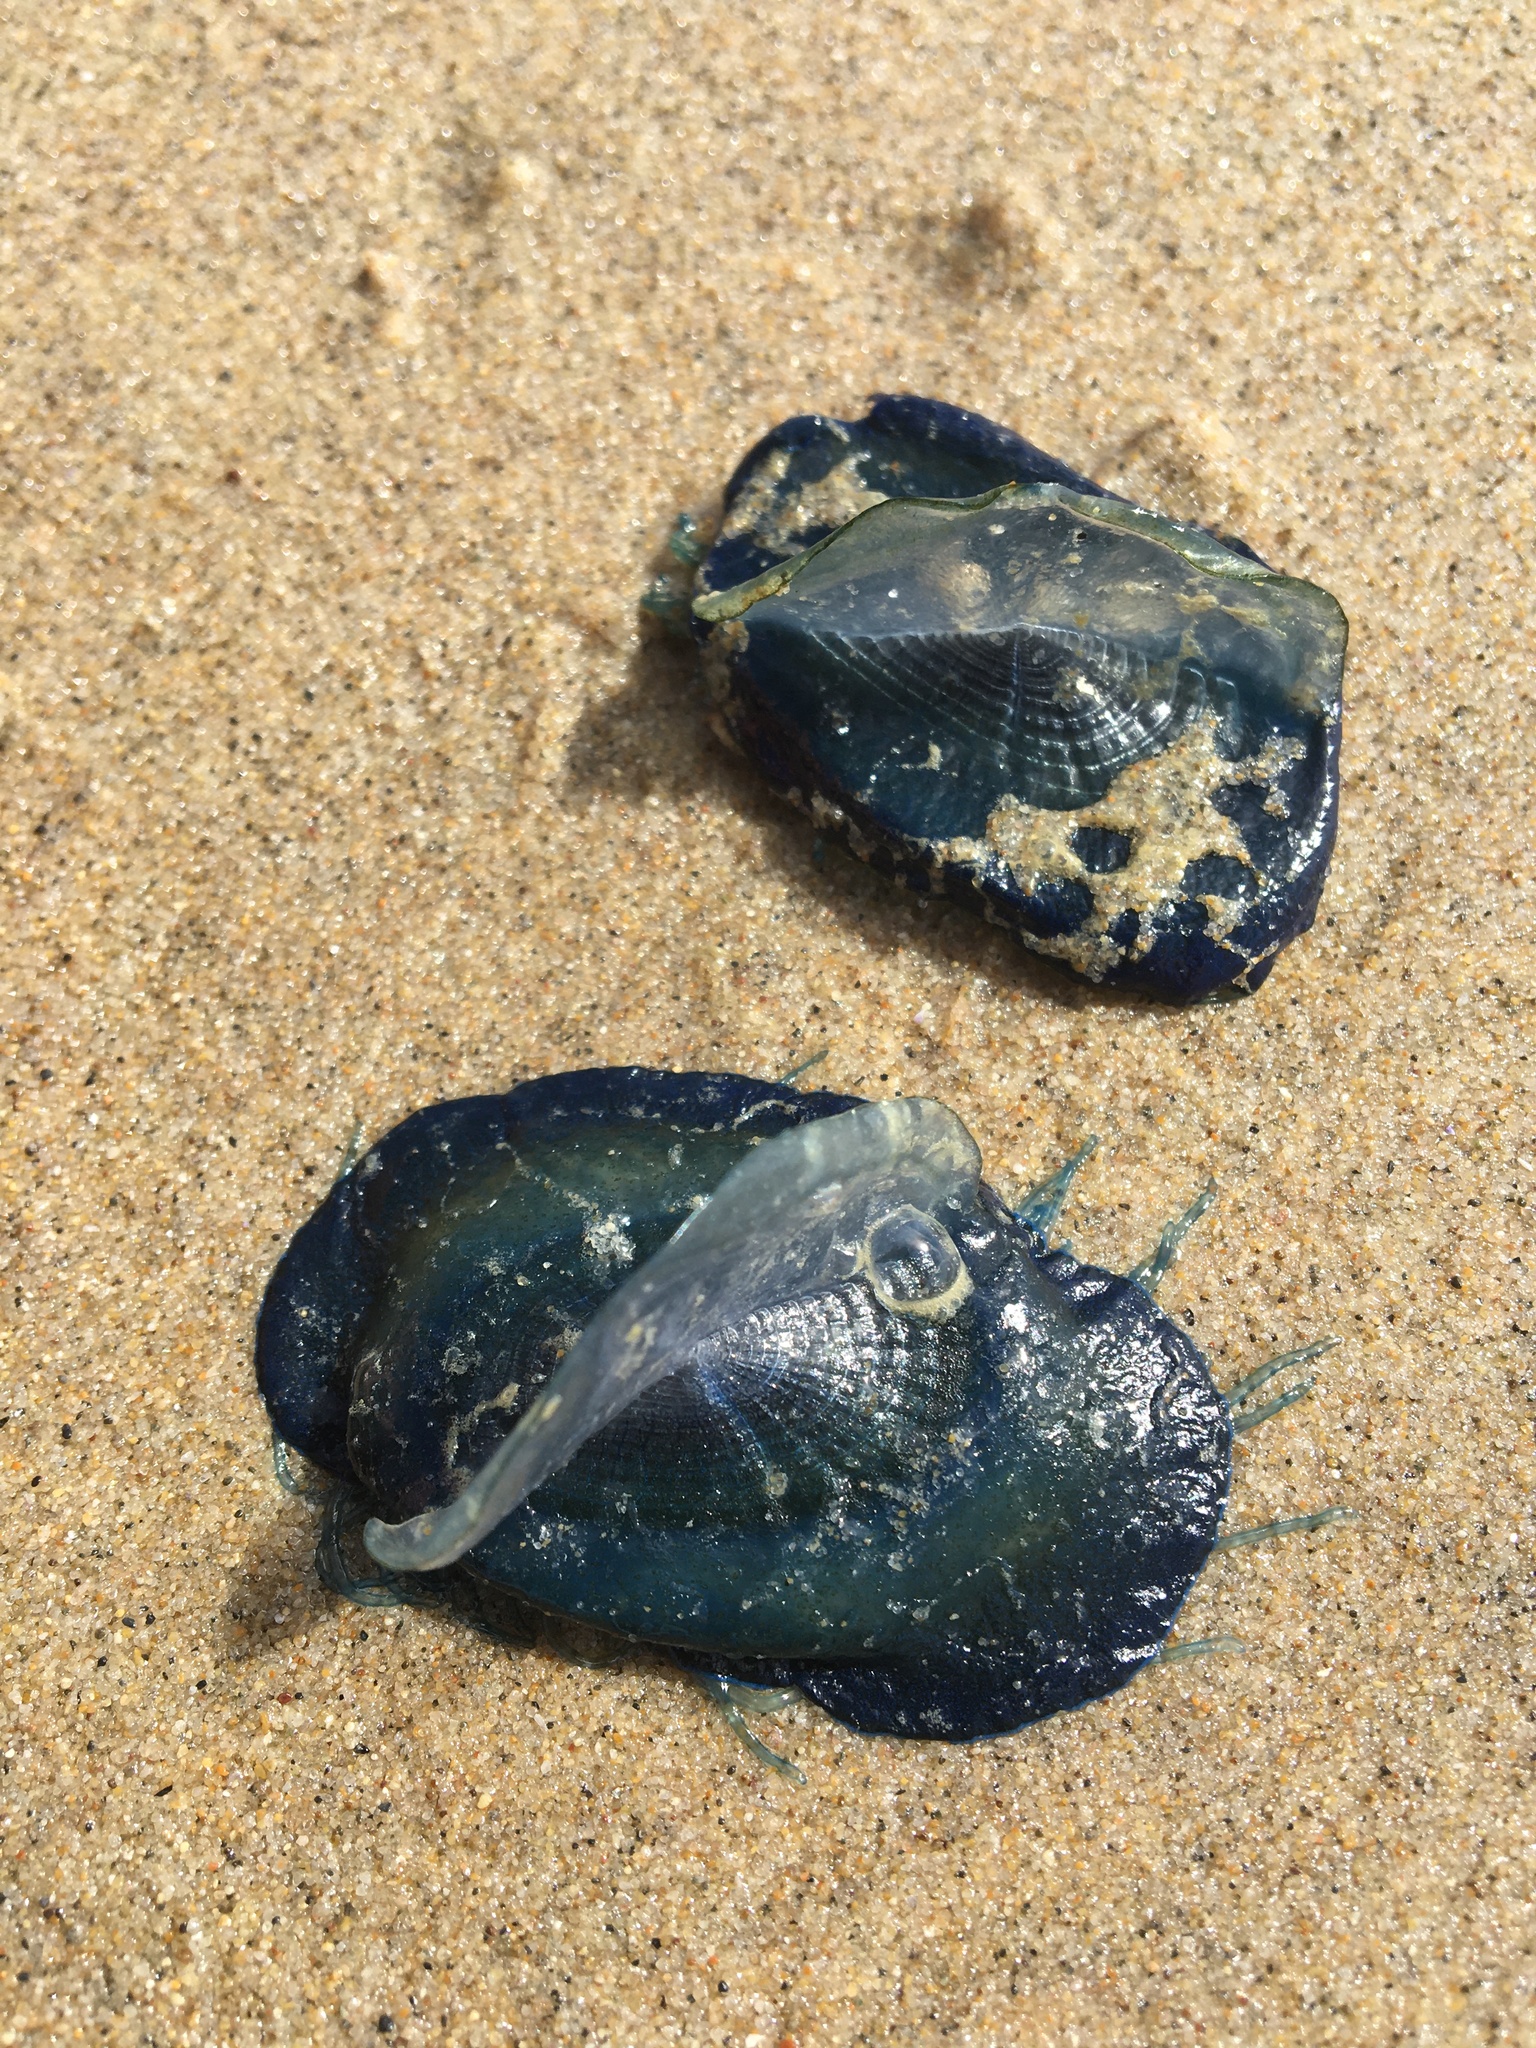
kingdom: Animalia
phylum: Cnidaria
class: Hydrozoa
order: Anthoathecata
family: Porpitidae
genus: Velella
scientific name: Velella velella
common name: By-the-wind-sailor
